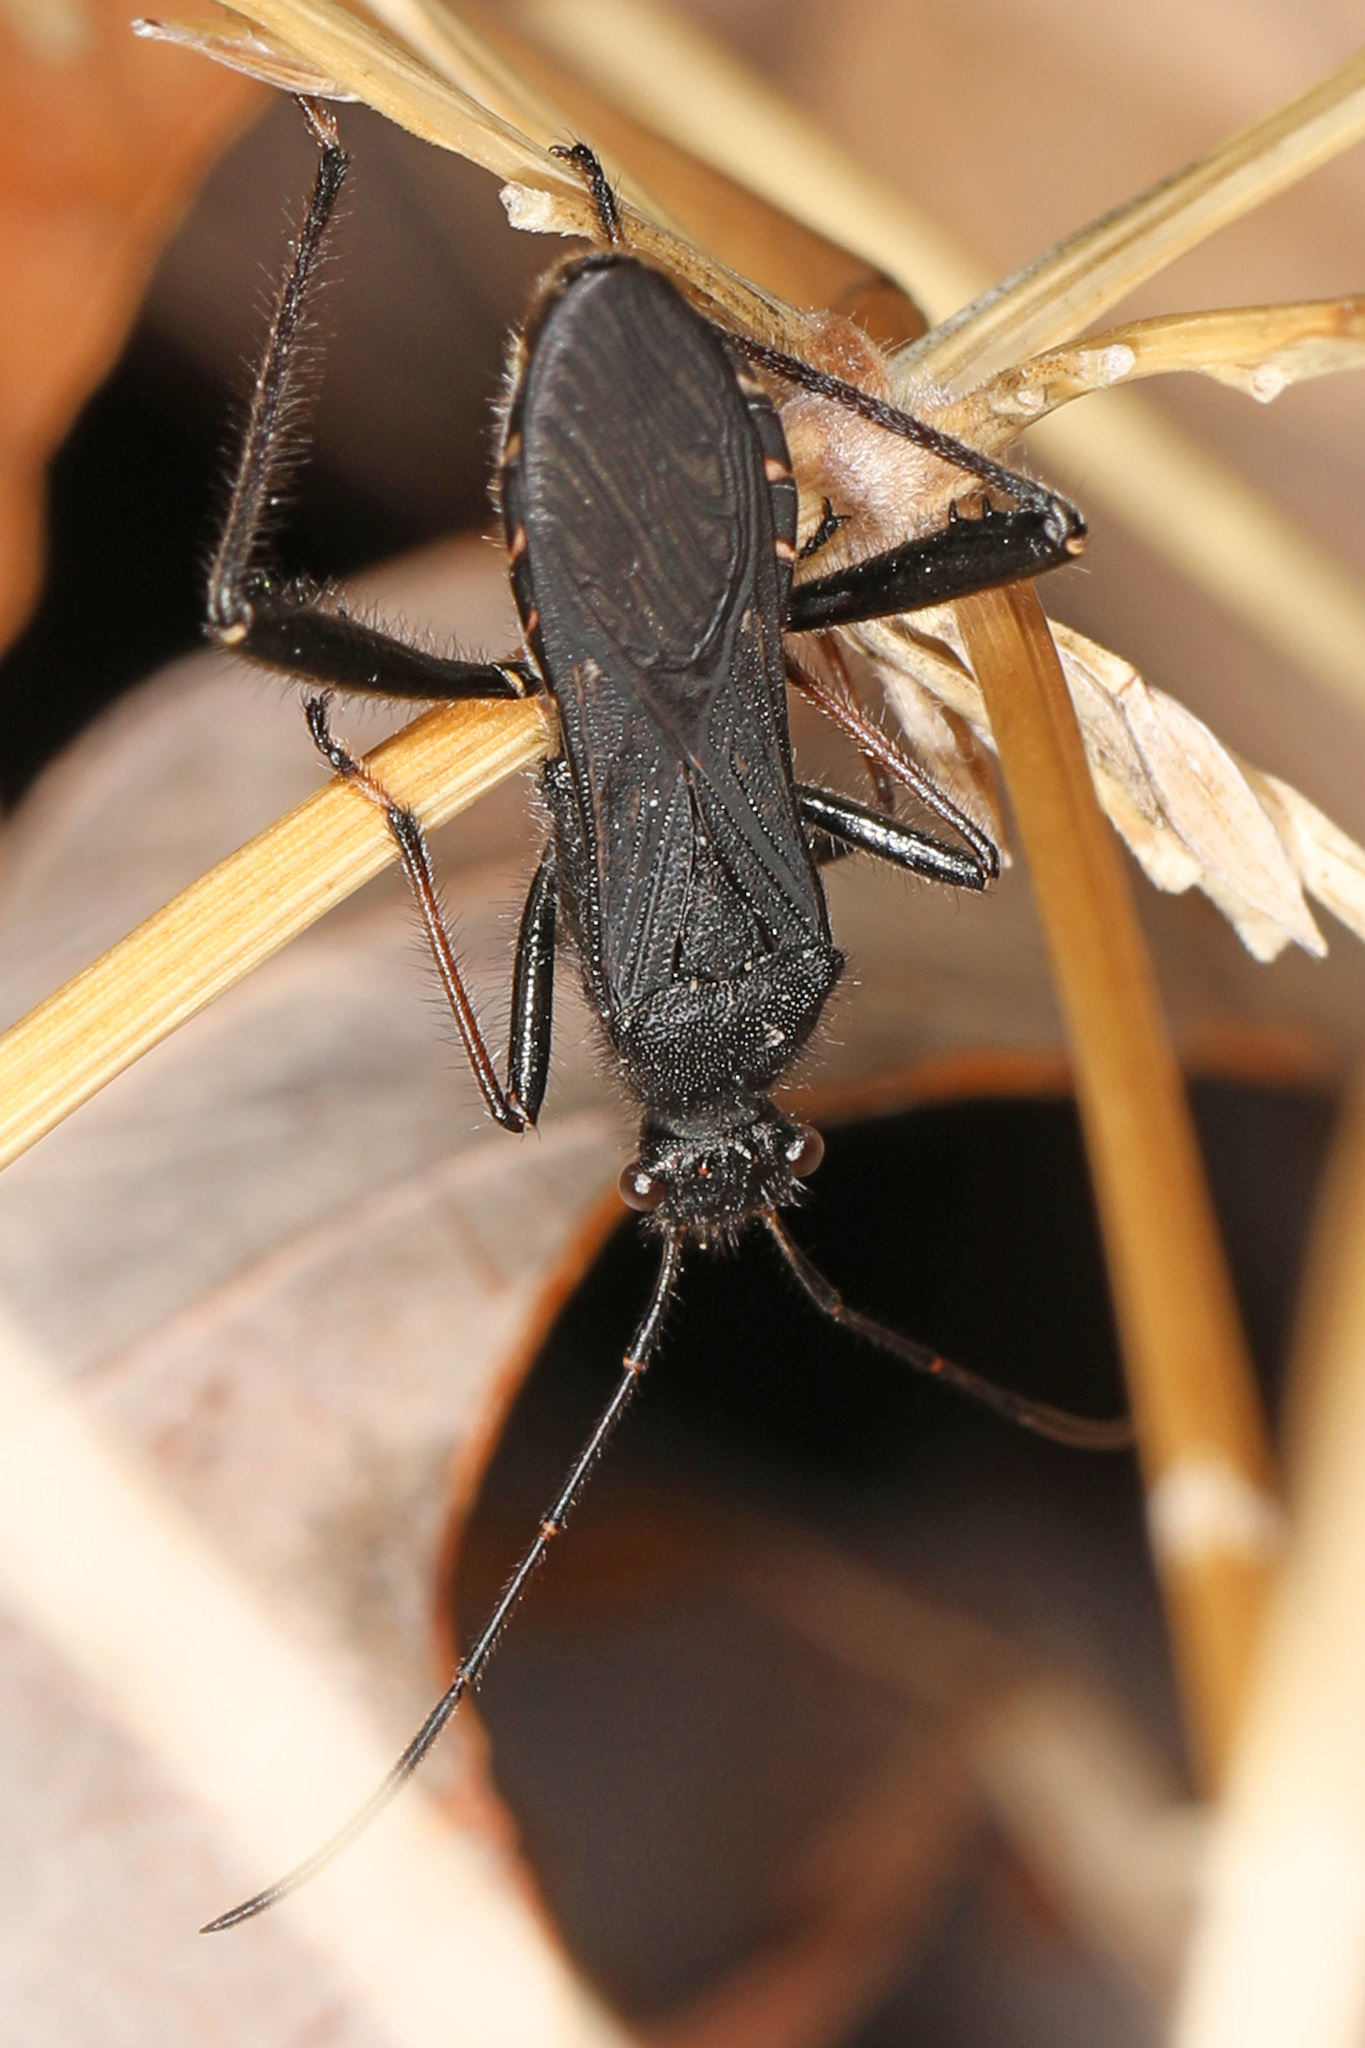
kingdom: Animalia
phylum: Arthropoda
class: Insecta
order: Hemiptera
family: Alydidae
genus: Alydus
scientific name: Alydus eurinus
